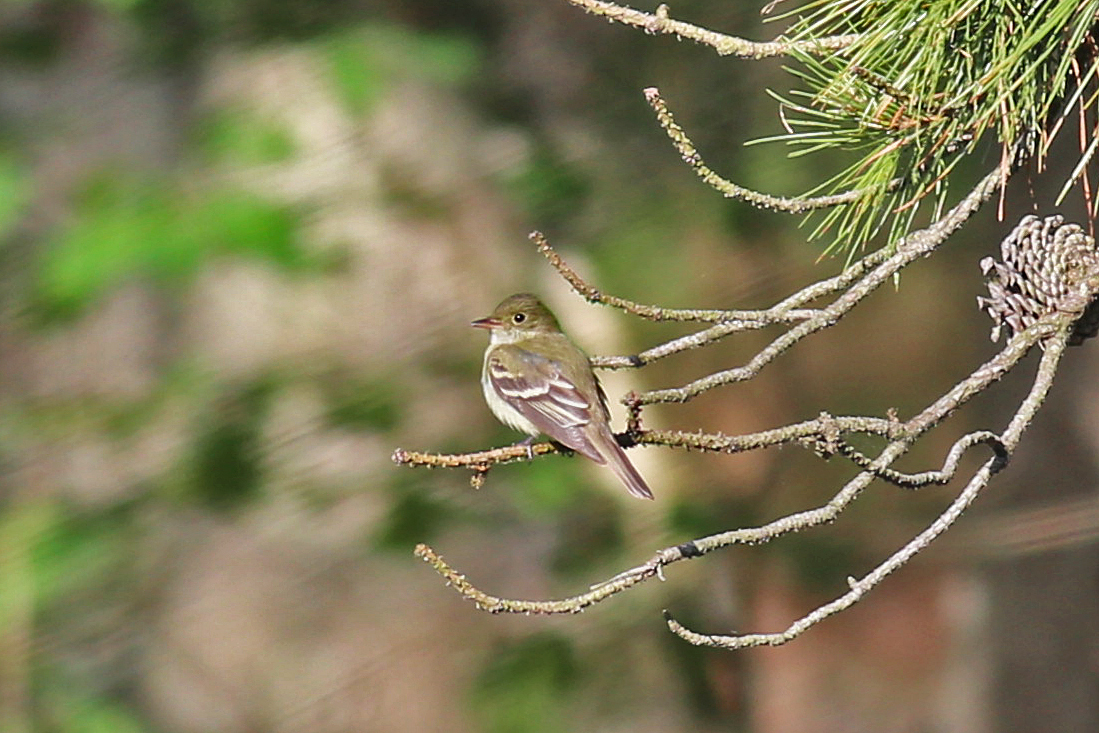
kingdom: Animalia
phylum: Chordata
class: Aves
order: Passeriformes
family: Tyrannidae
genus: Empidonax
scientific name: Empidonax virescens
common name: Acadian flycatcher
